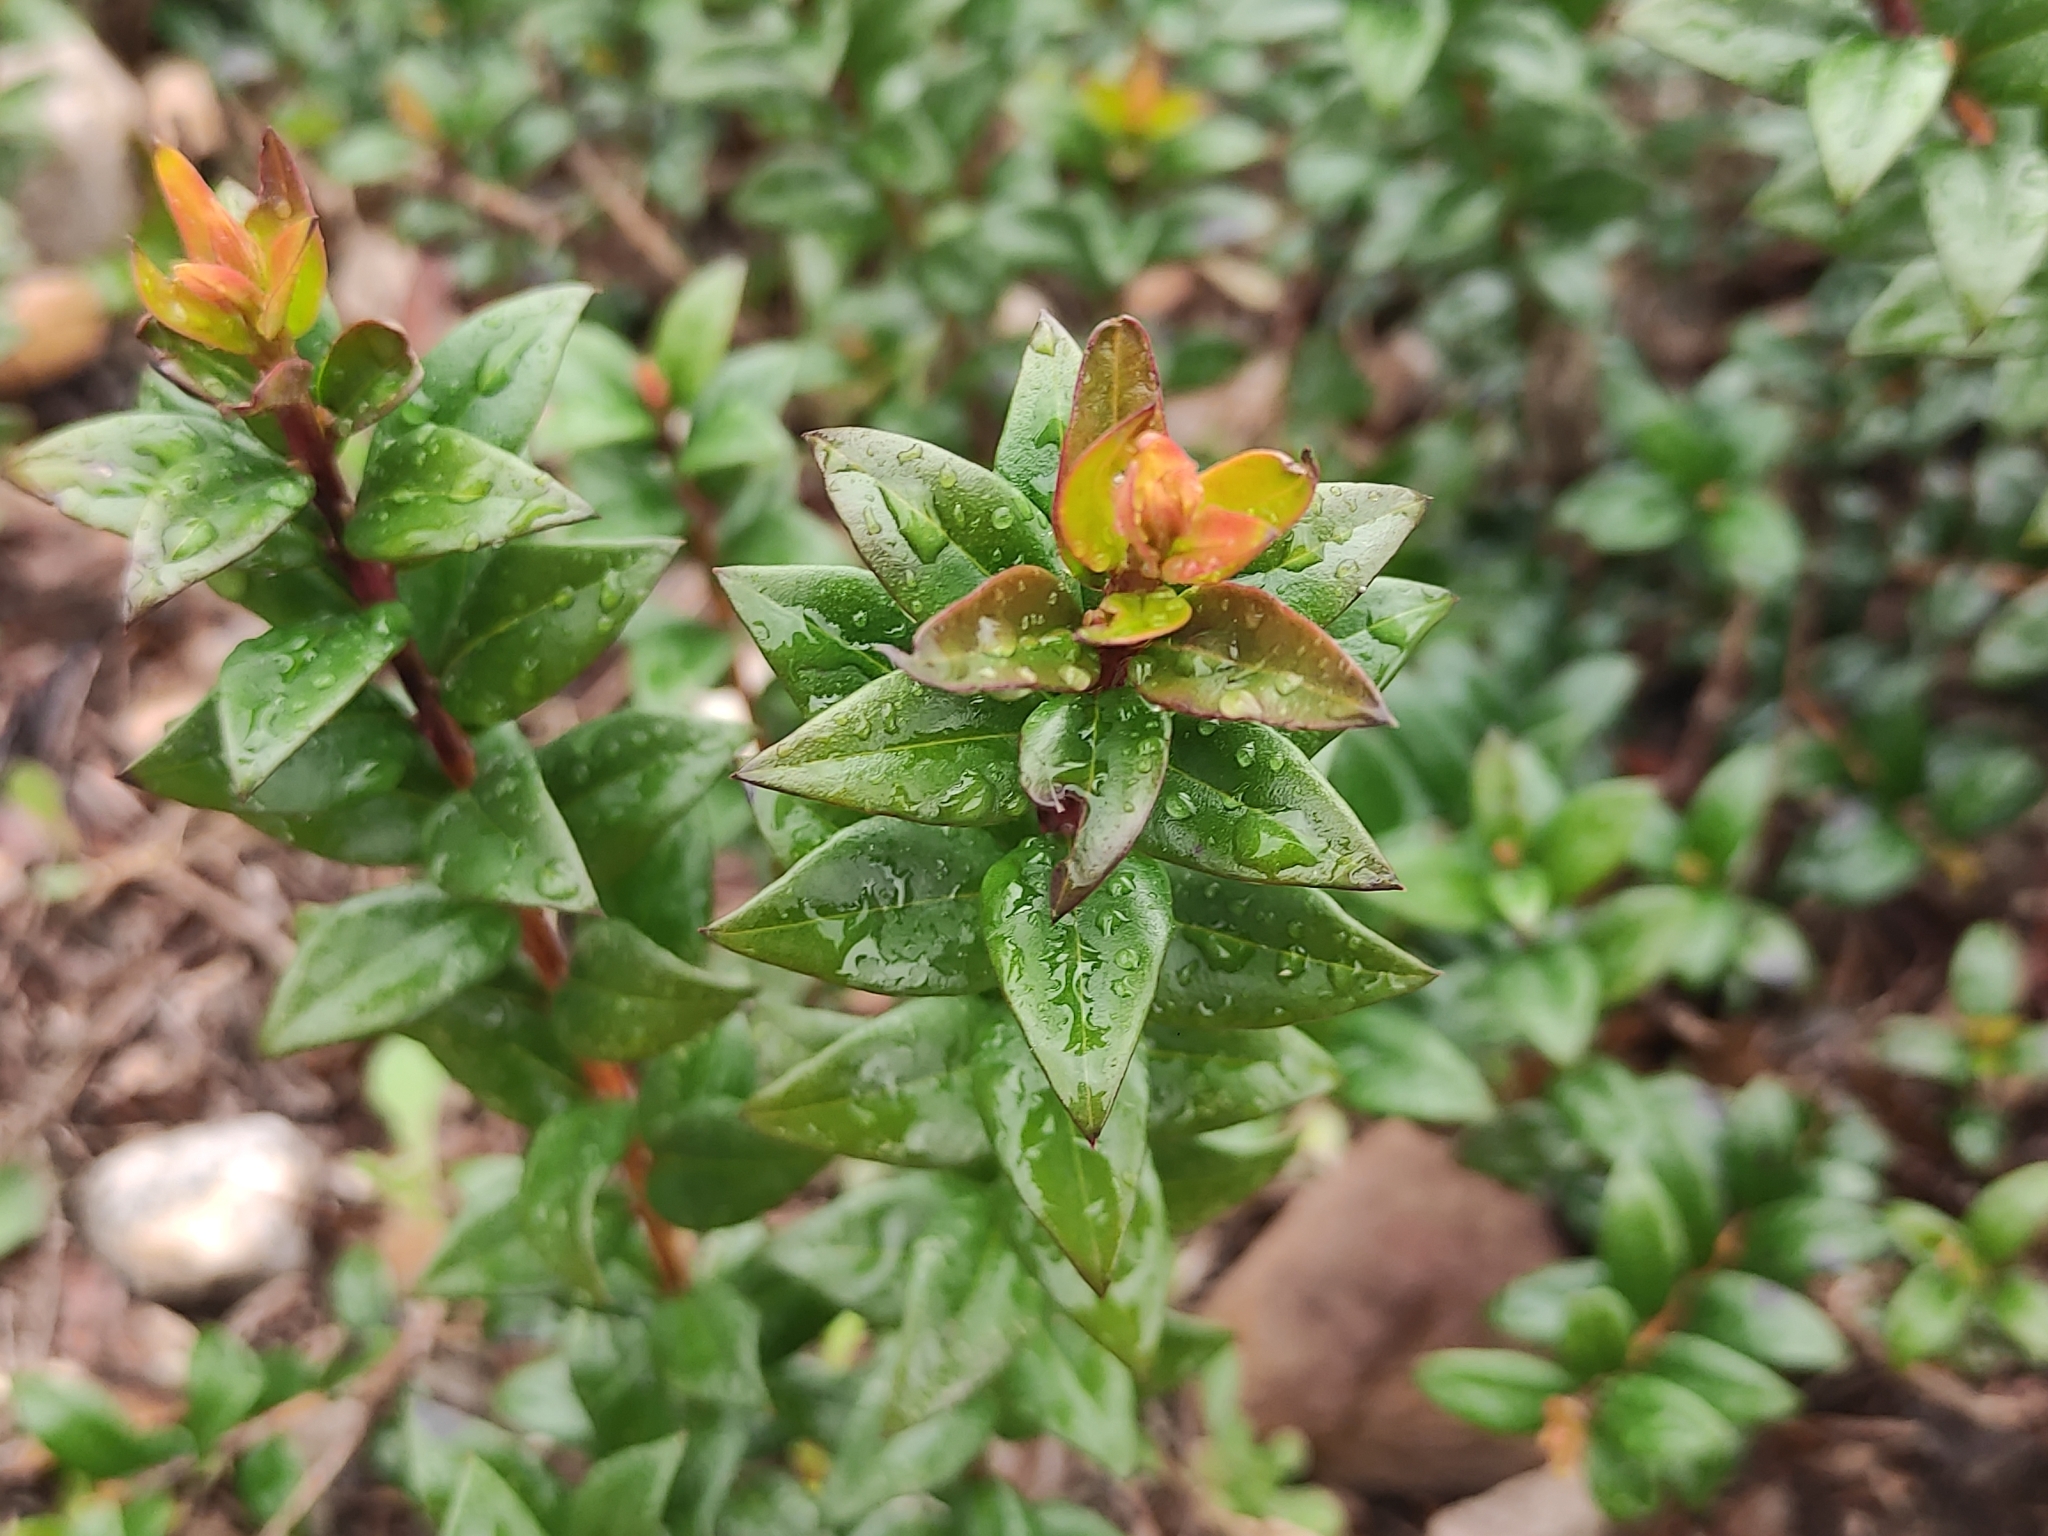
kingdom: Plantae
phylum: Tracheophyta
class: Magnoliopsida
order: Myrtales
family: Myrtaceae
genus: Myrtus
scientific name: Myrtus communis
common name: Myrtle
